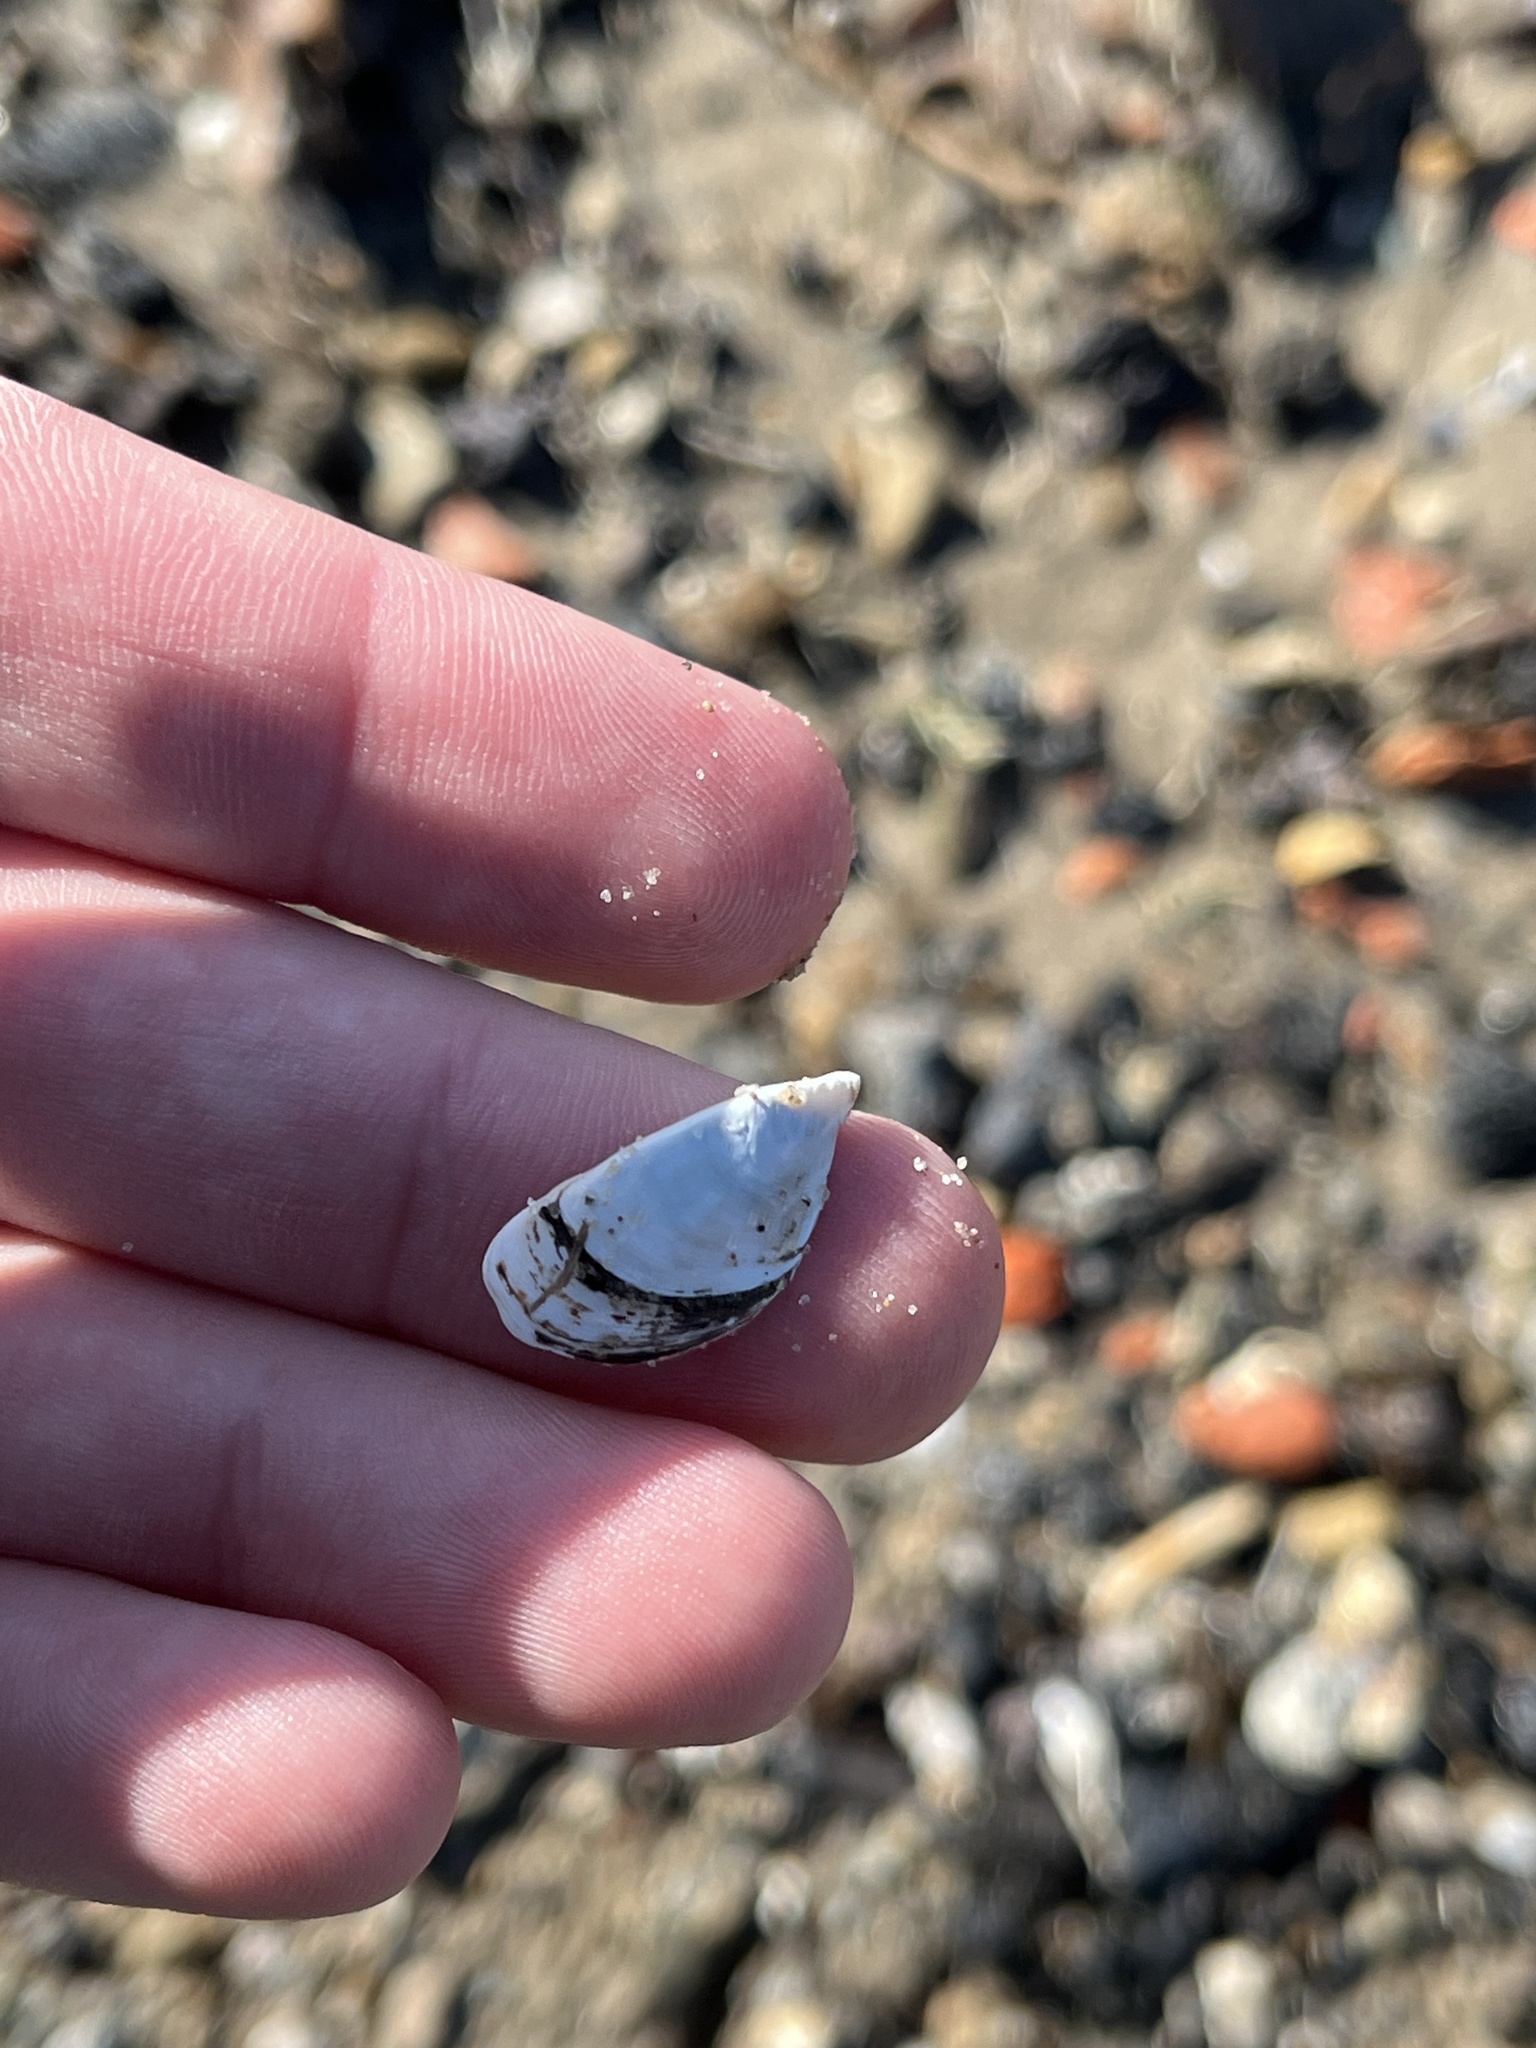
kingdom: Animalia
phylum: Mollusca
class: Bivalvia
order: Myida
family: Dreissenidae
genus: Dreissena
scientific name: Dreissena polymorpha
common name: Zebra mussel
